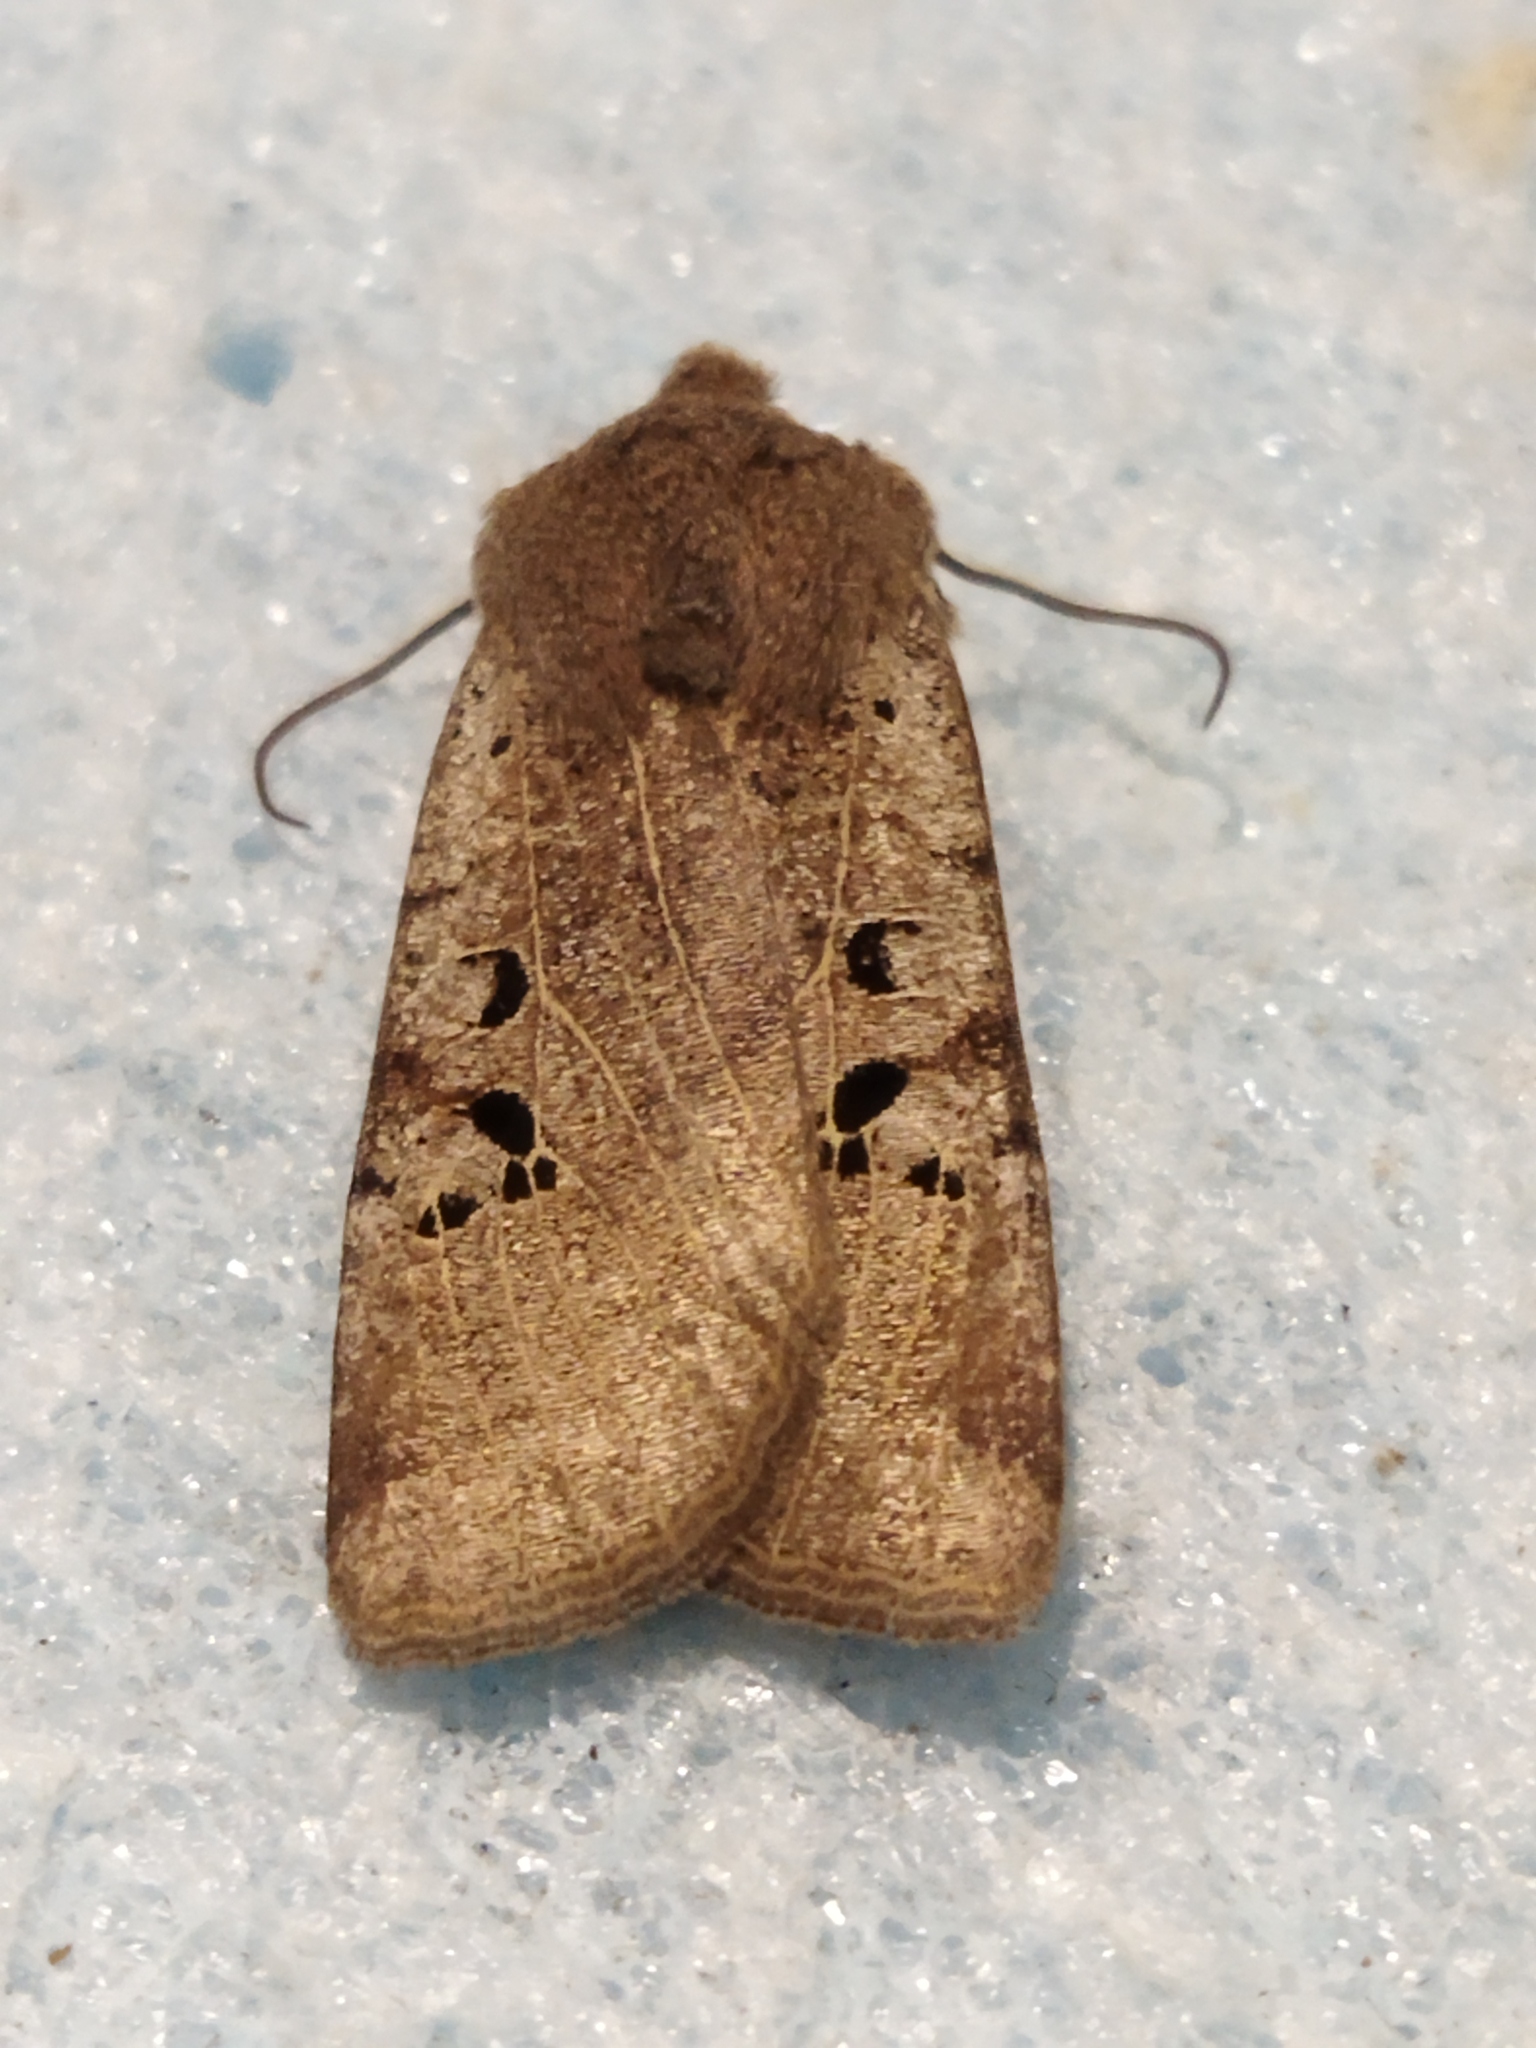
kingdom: Animalia
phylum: Arthropoda
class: Insecta
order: Lepidoptera
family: Noctuidae
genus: Conistra
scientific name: Conistra rubiginosa
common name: Black-spotted chestnut
